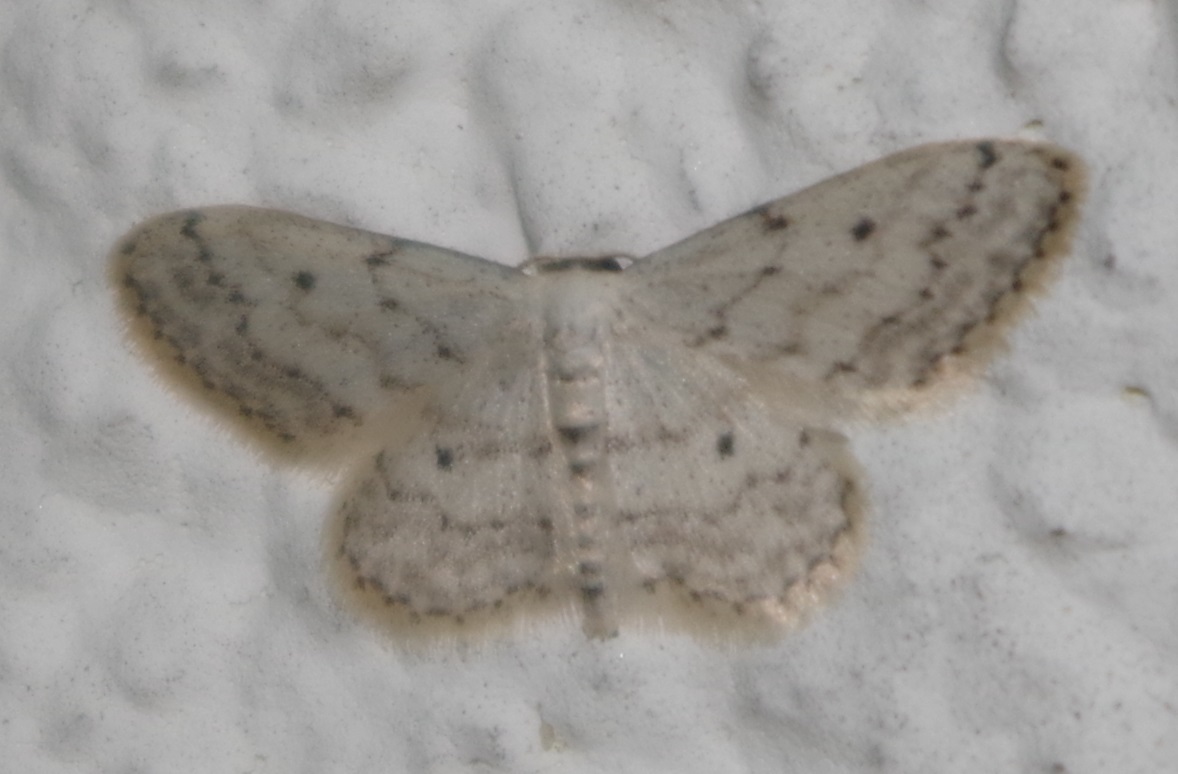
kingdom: Animalia
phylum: Arthropoda
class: Insecta
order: Lepidoptera
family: Geometridae
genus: Idaea
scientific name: Idaea seriata
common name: Small dusty wave
